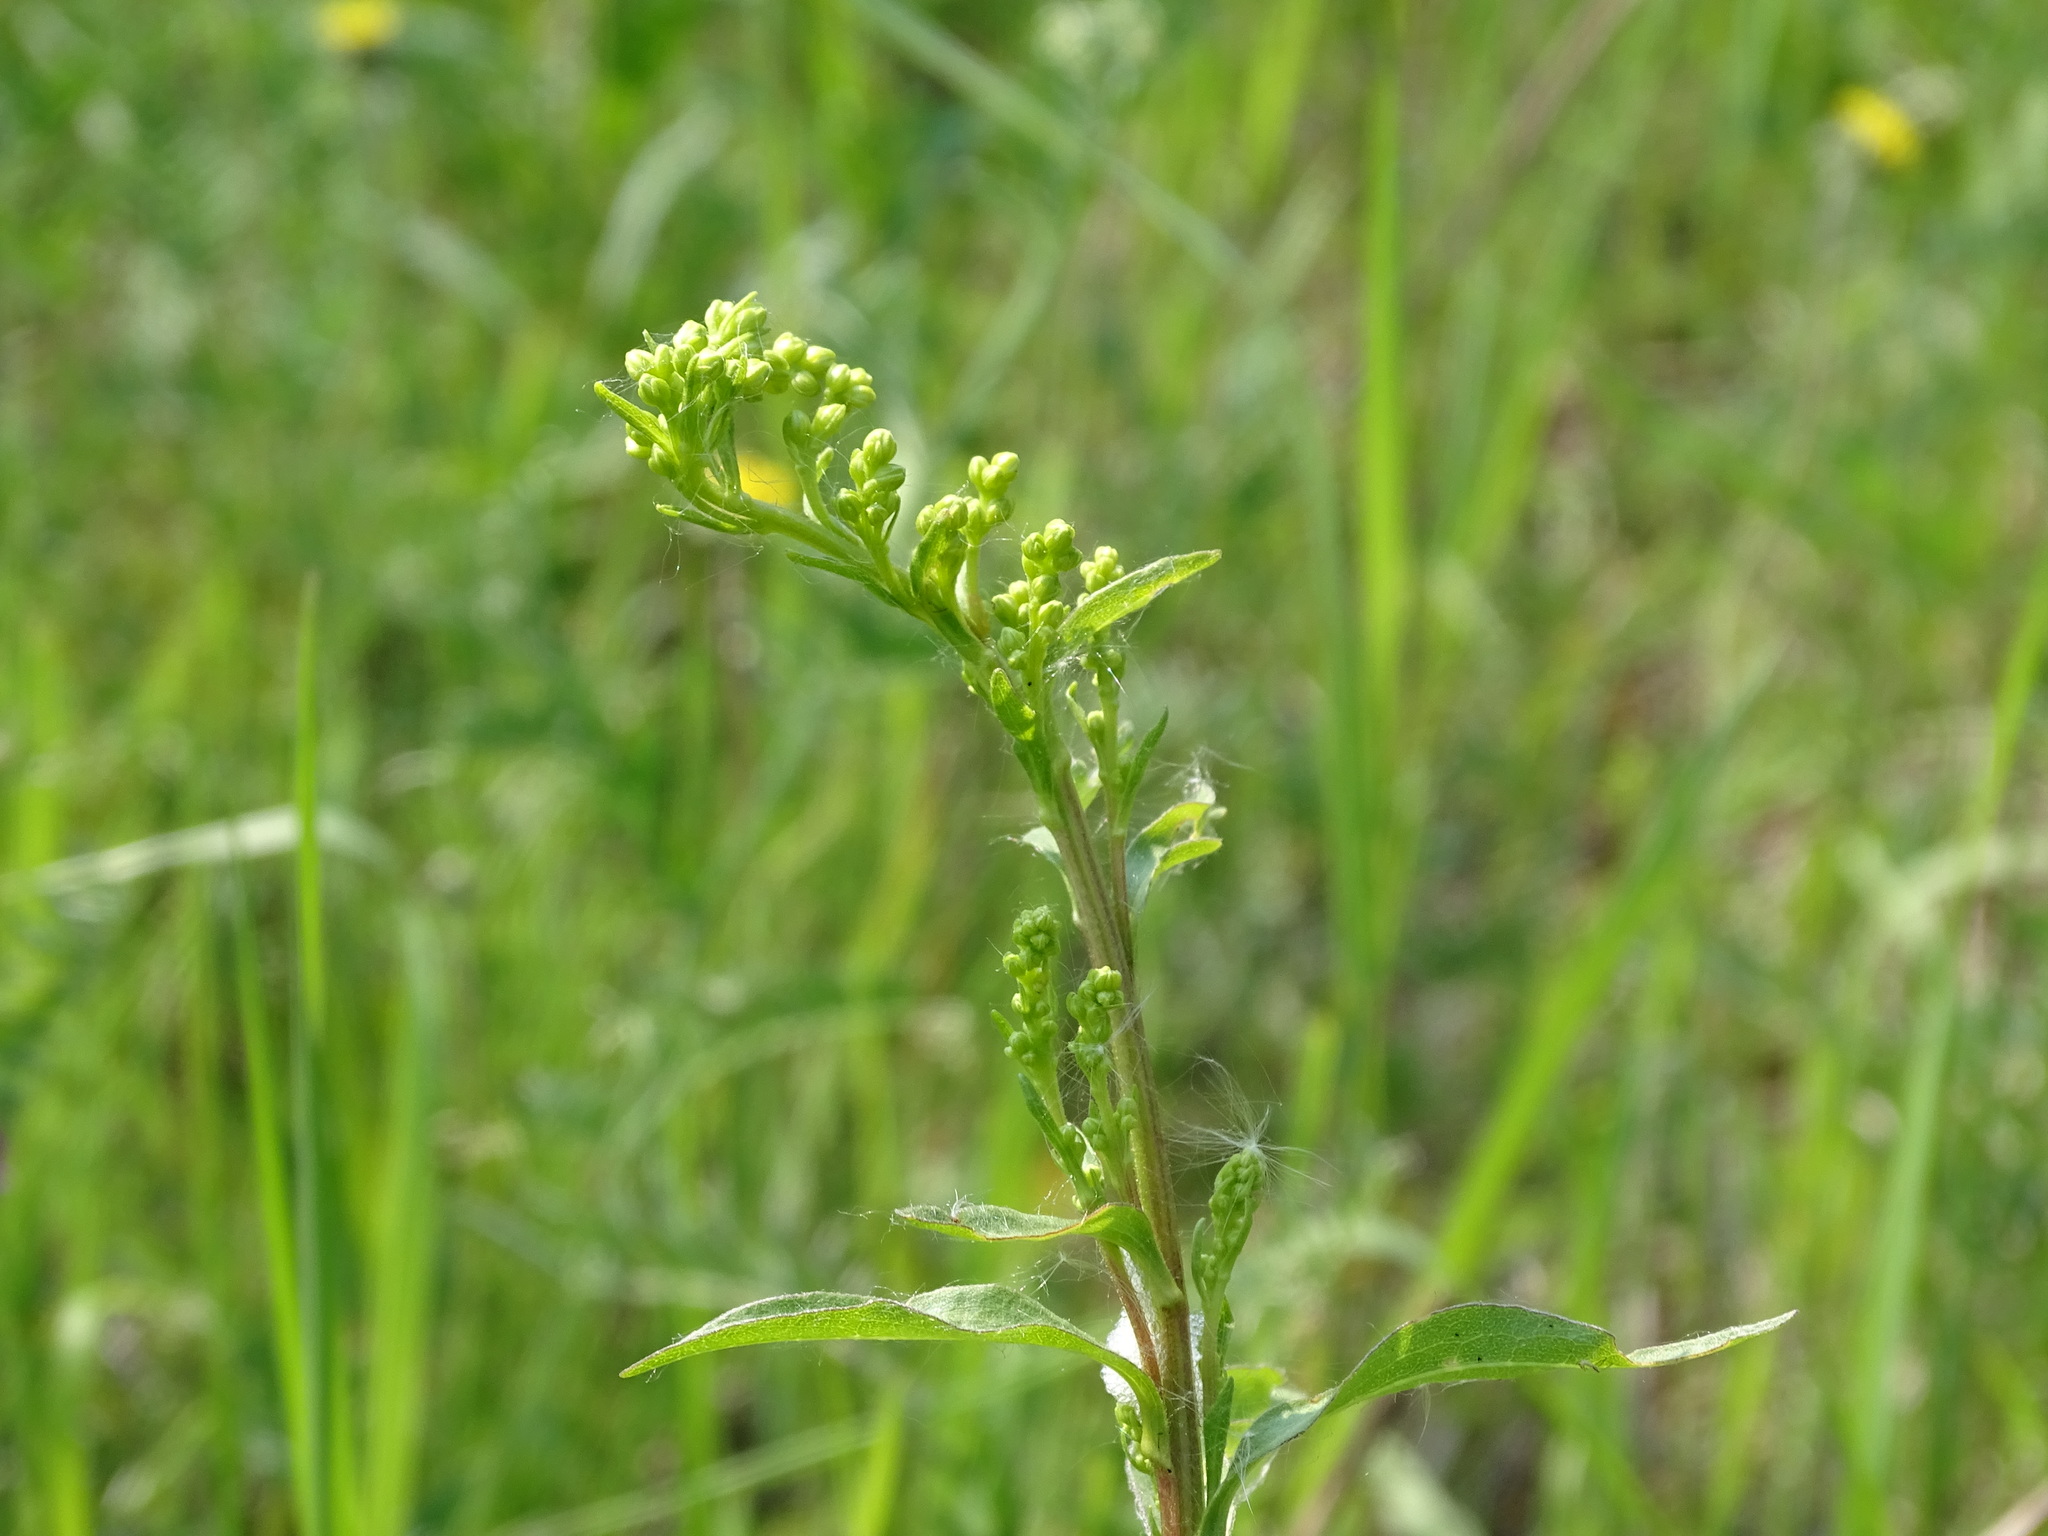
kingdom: Plantae
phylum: Tracheophyta
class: Magnoliopsida
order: Asterales
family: Asteraceae
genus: Solidago
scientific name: Solidago juncea
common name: Early goldenrod
